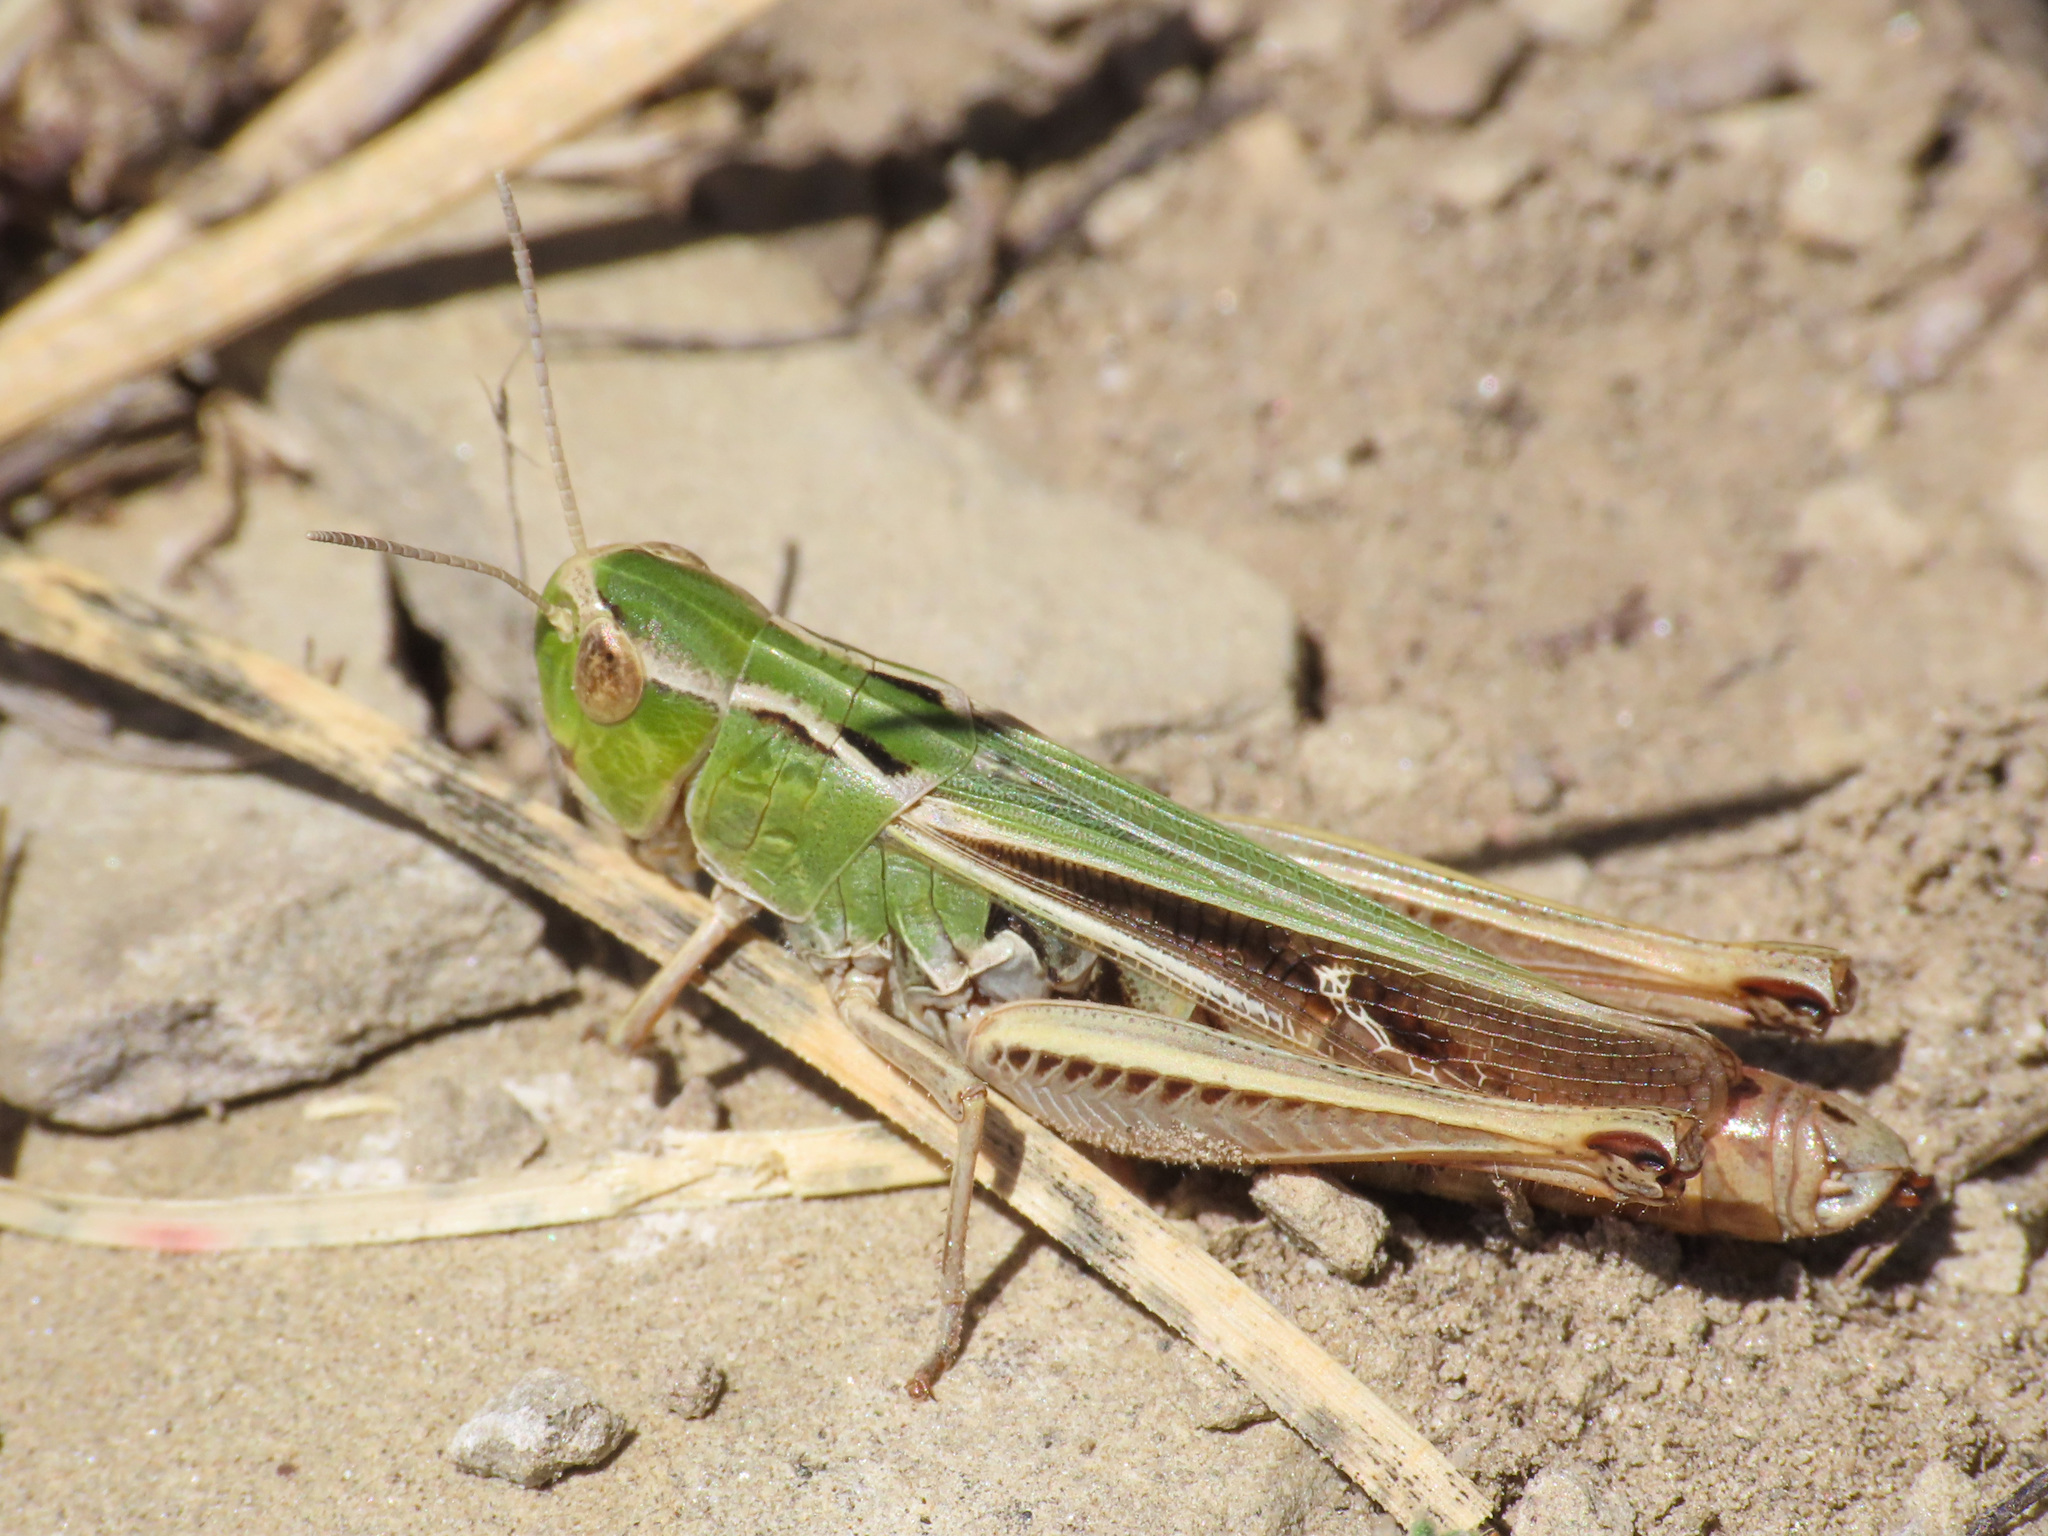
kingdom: Animalia
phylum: Arthropoda
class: Insecta
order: Orthoptera
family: Acrididae
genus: Stenobothrus
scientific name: Stenobothrus lineatus
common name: Stripe-winged grasshopper
